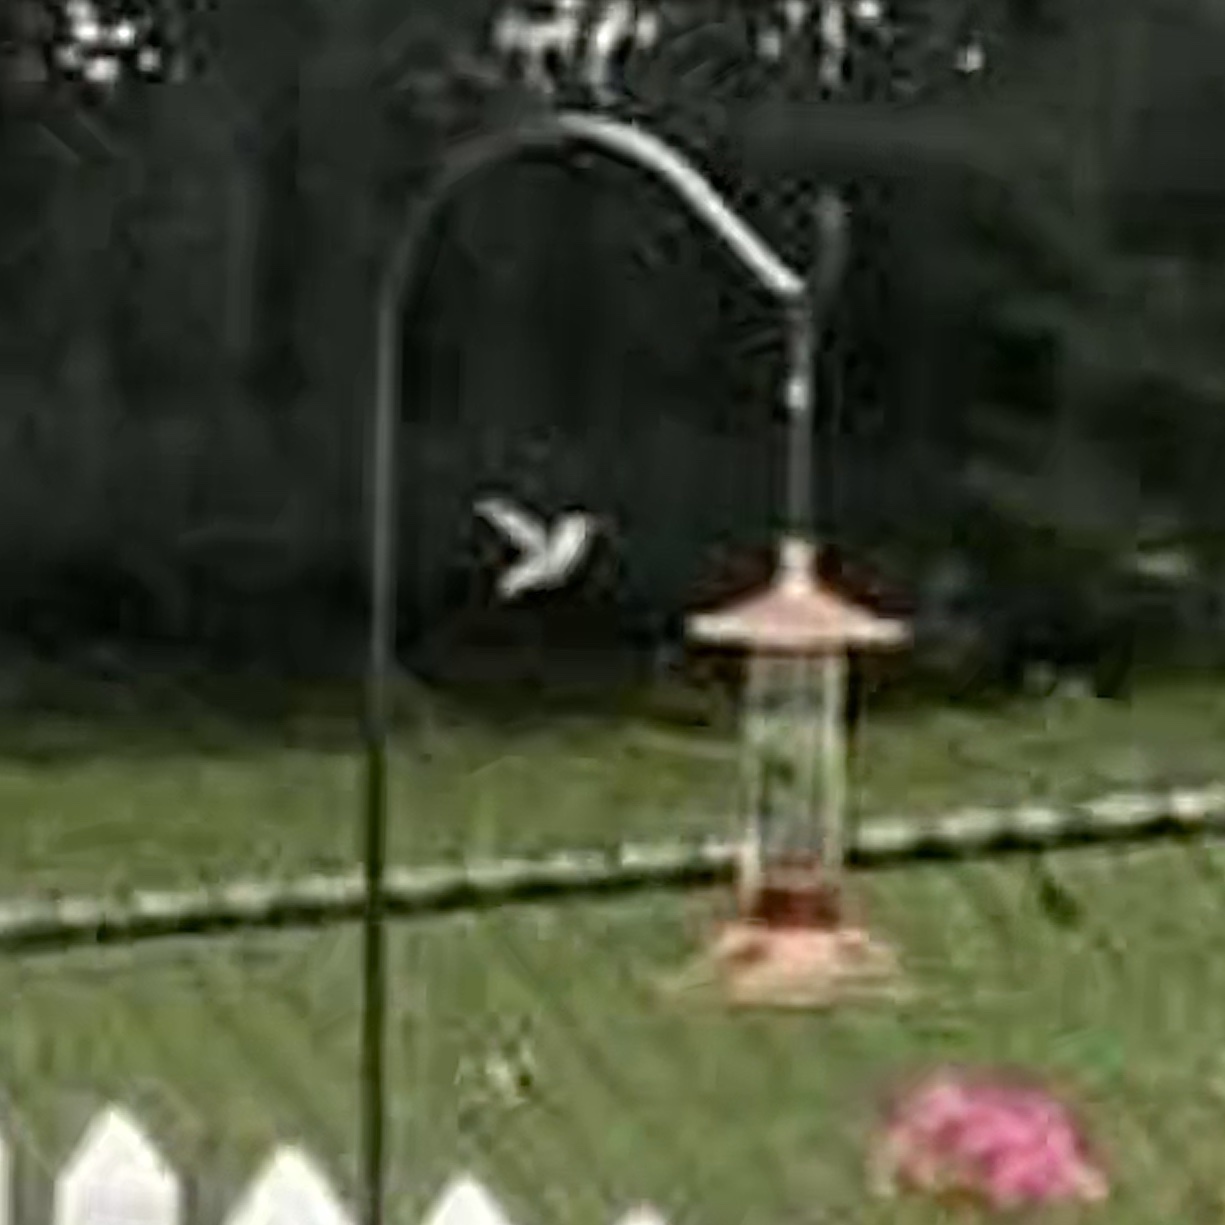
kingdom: Animalia
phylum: Chordata
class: Aves
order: Apodiformes
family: Trochilidae
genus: Archilochus
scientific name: Archilochus colubris
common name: Ruby-throated hummingbird
